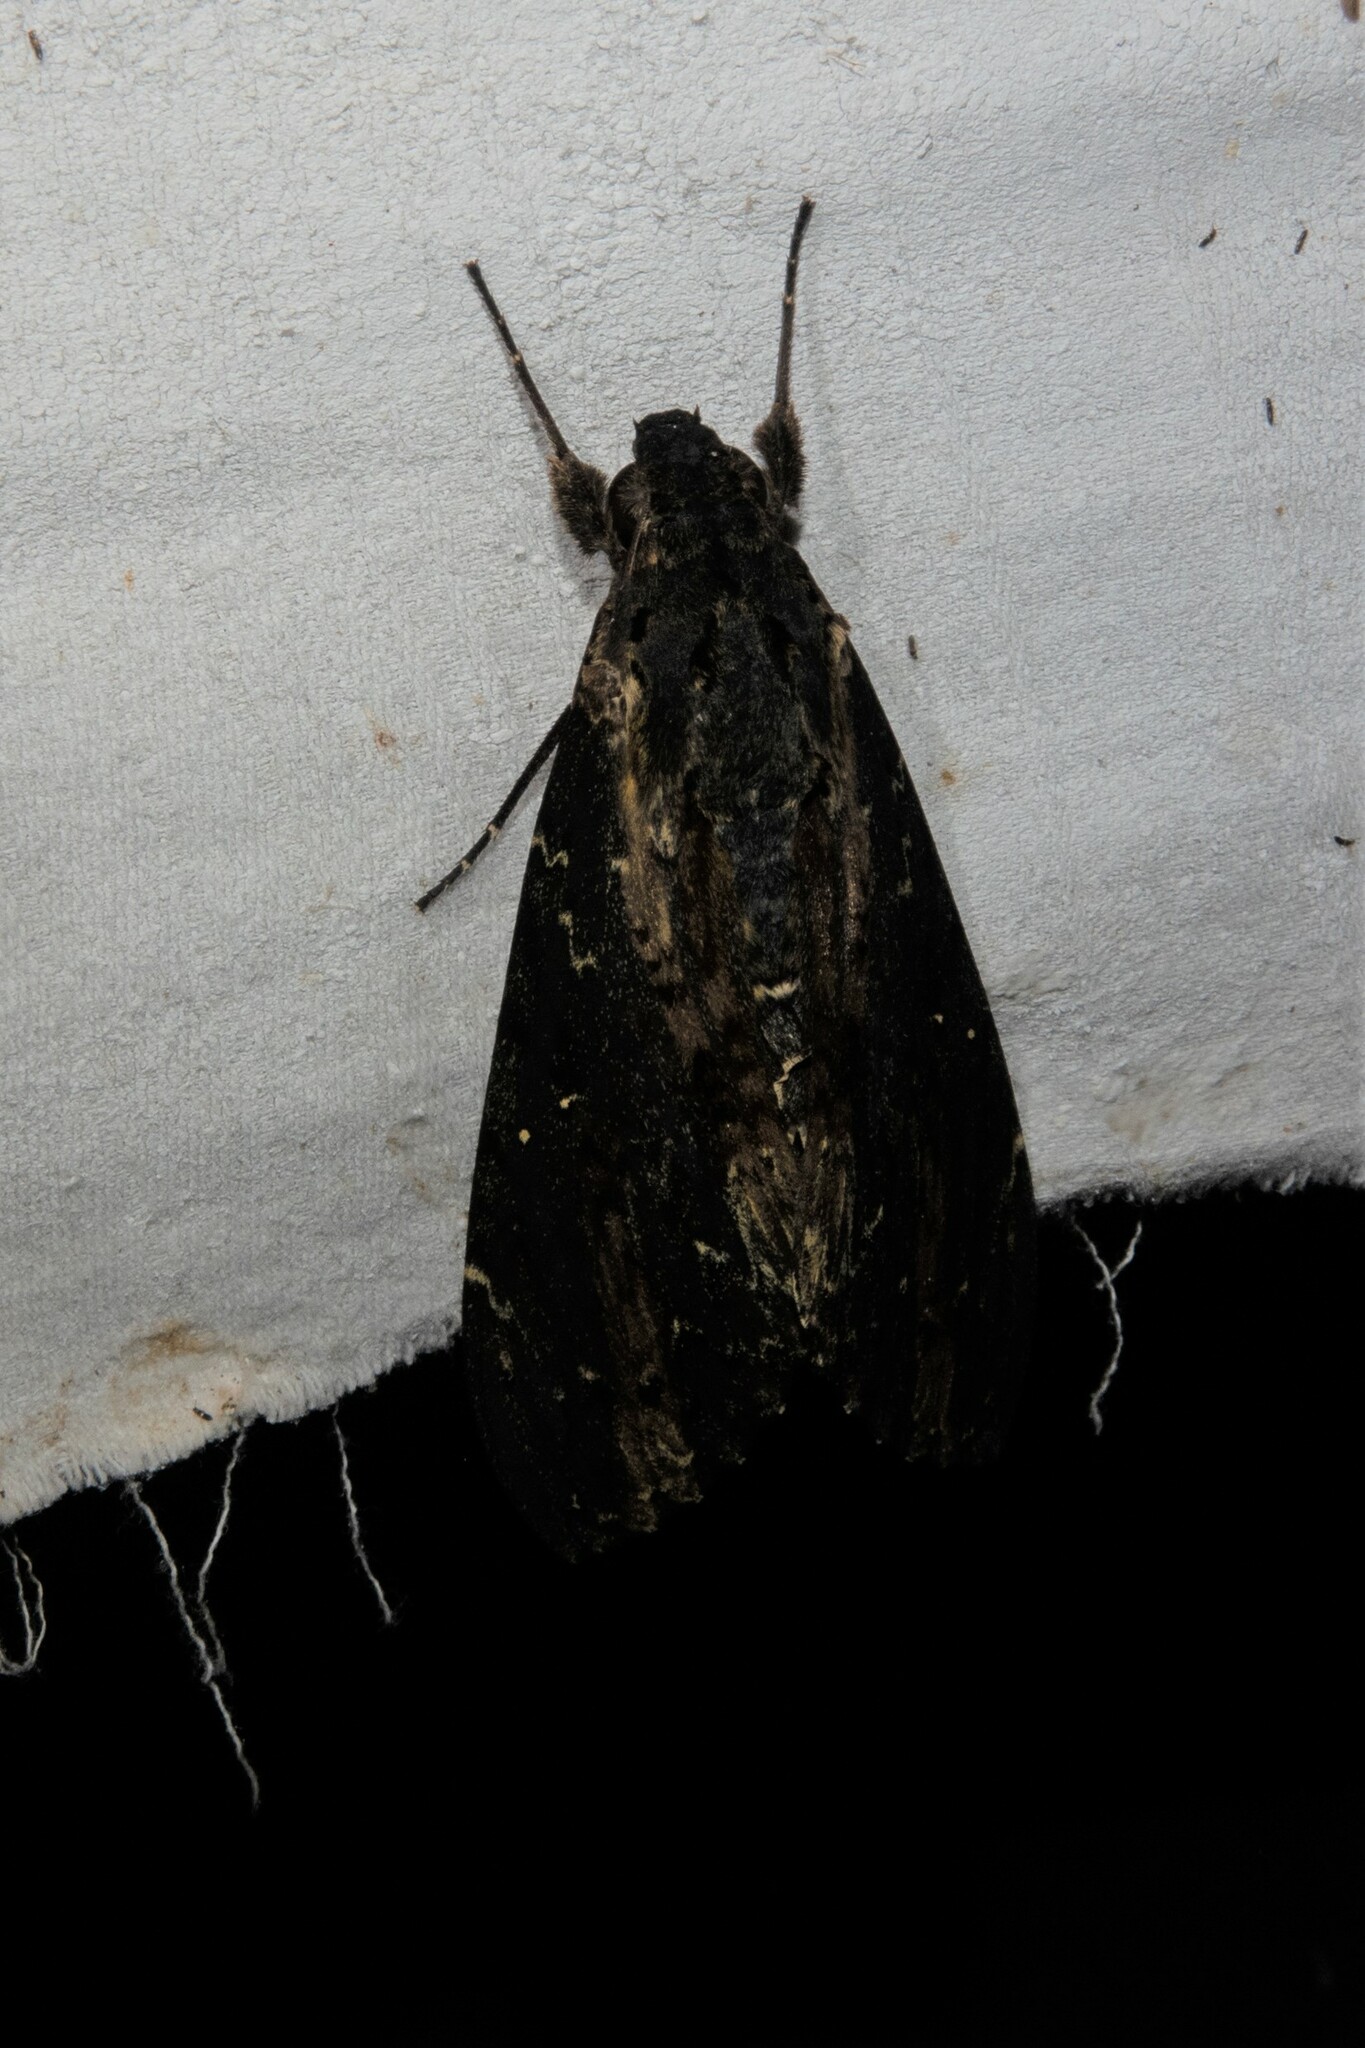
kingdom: Animalia
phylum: Arthropoda
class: Insecta
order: Lepidoptera
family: Sphingidae
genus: Neococytius
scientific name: Neococytius cluentius
